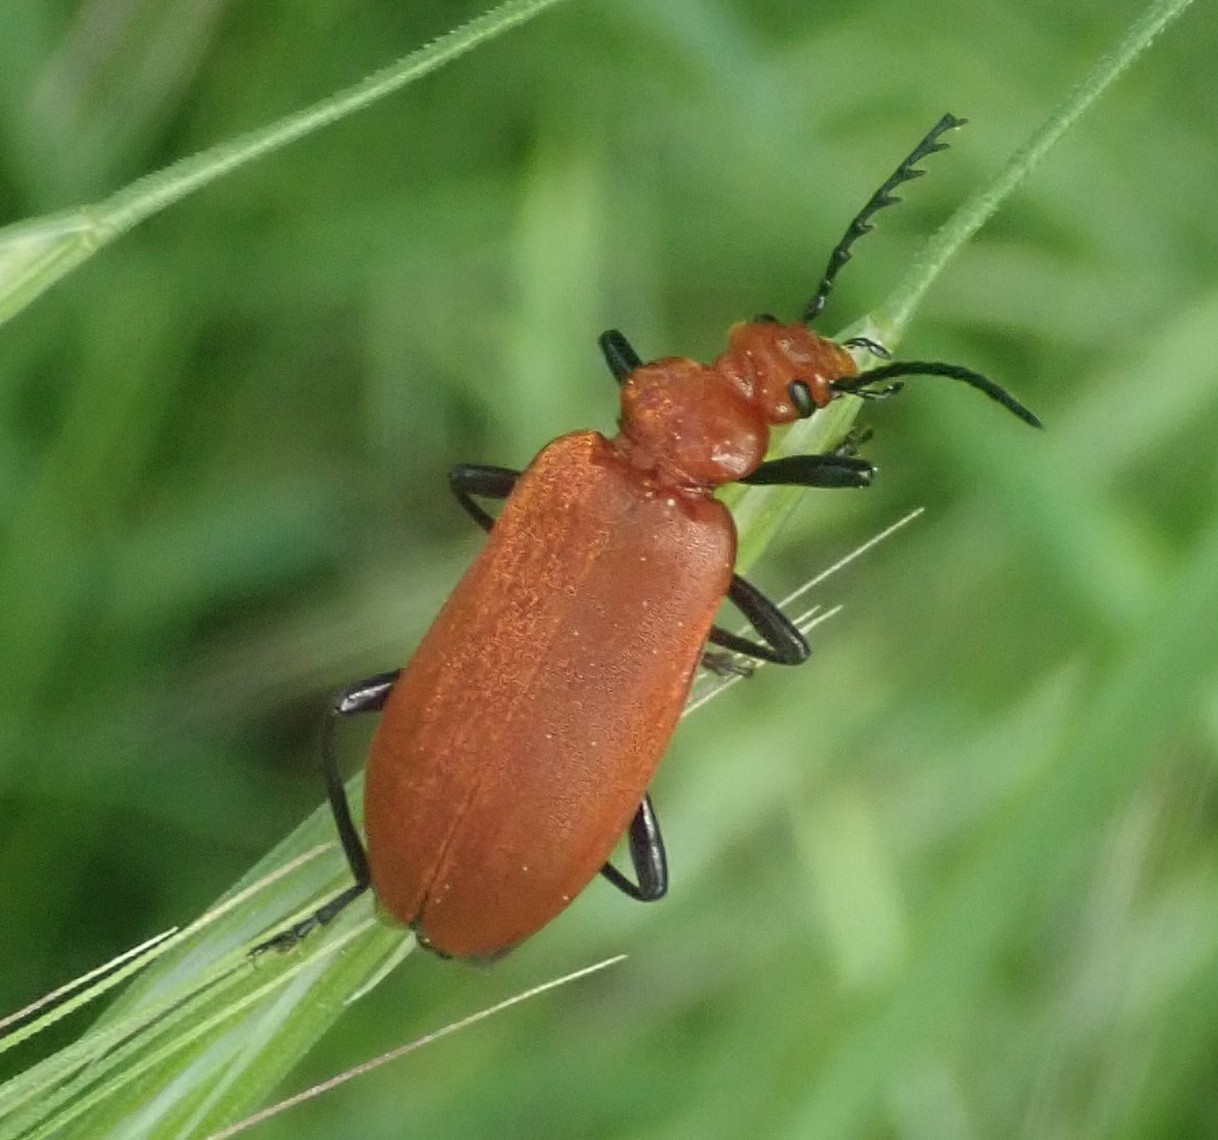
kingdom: Animalia
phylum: Arthropoda
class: Insecta
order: Coleoptera
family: Pyrochroidae
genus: Pyrochroa
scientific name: Pyrochroa serraticornis
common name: Red-headed cardinal beetle
